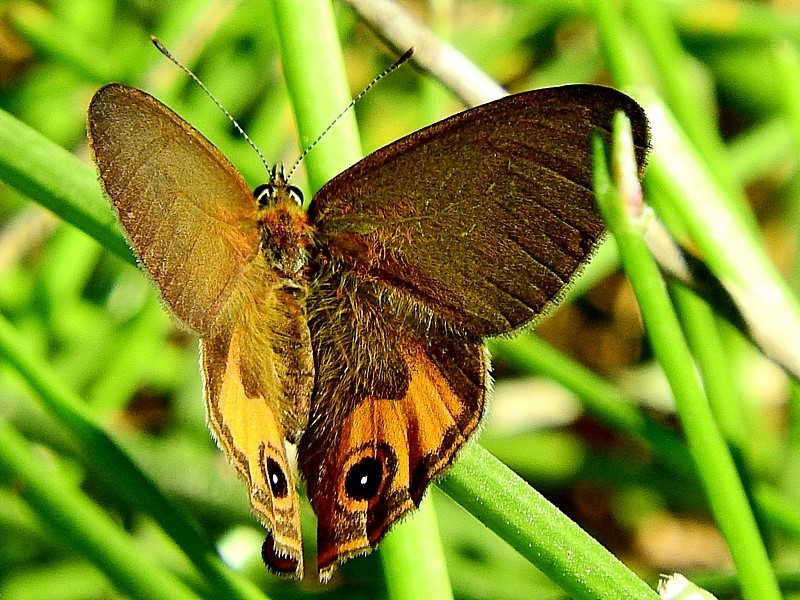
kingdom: Animalia
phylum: Arthropoda
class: Insecta
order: Lepidoptera
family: Nymphalidae
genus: Hypocysta
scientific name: Hypocysta metirius
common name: Brown ringlet
